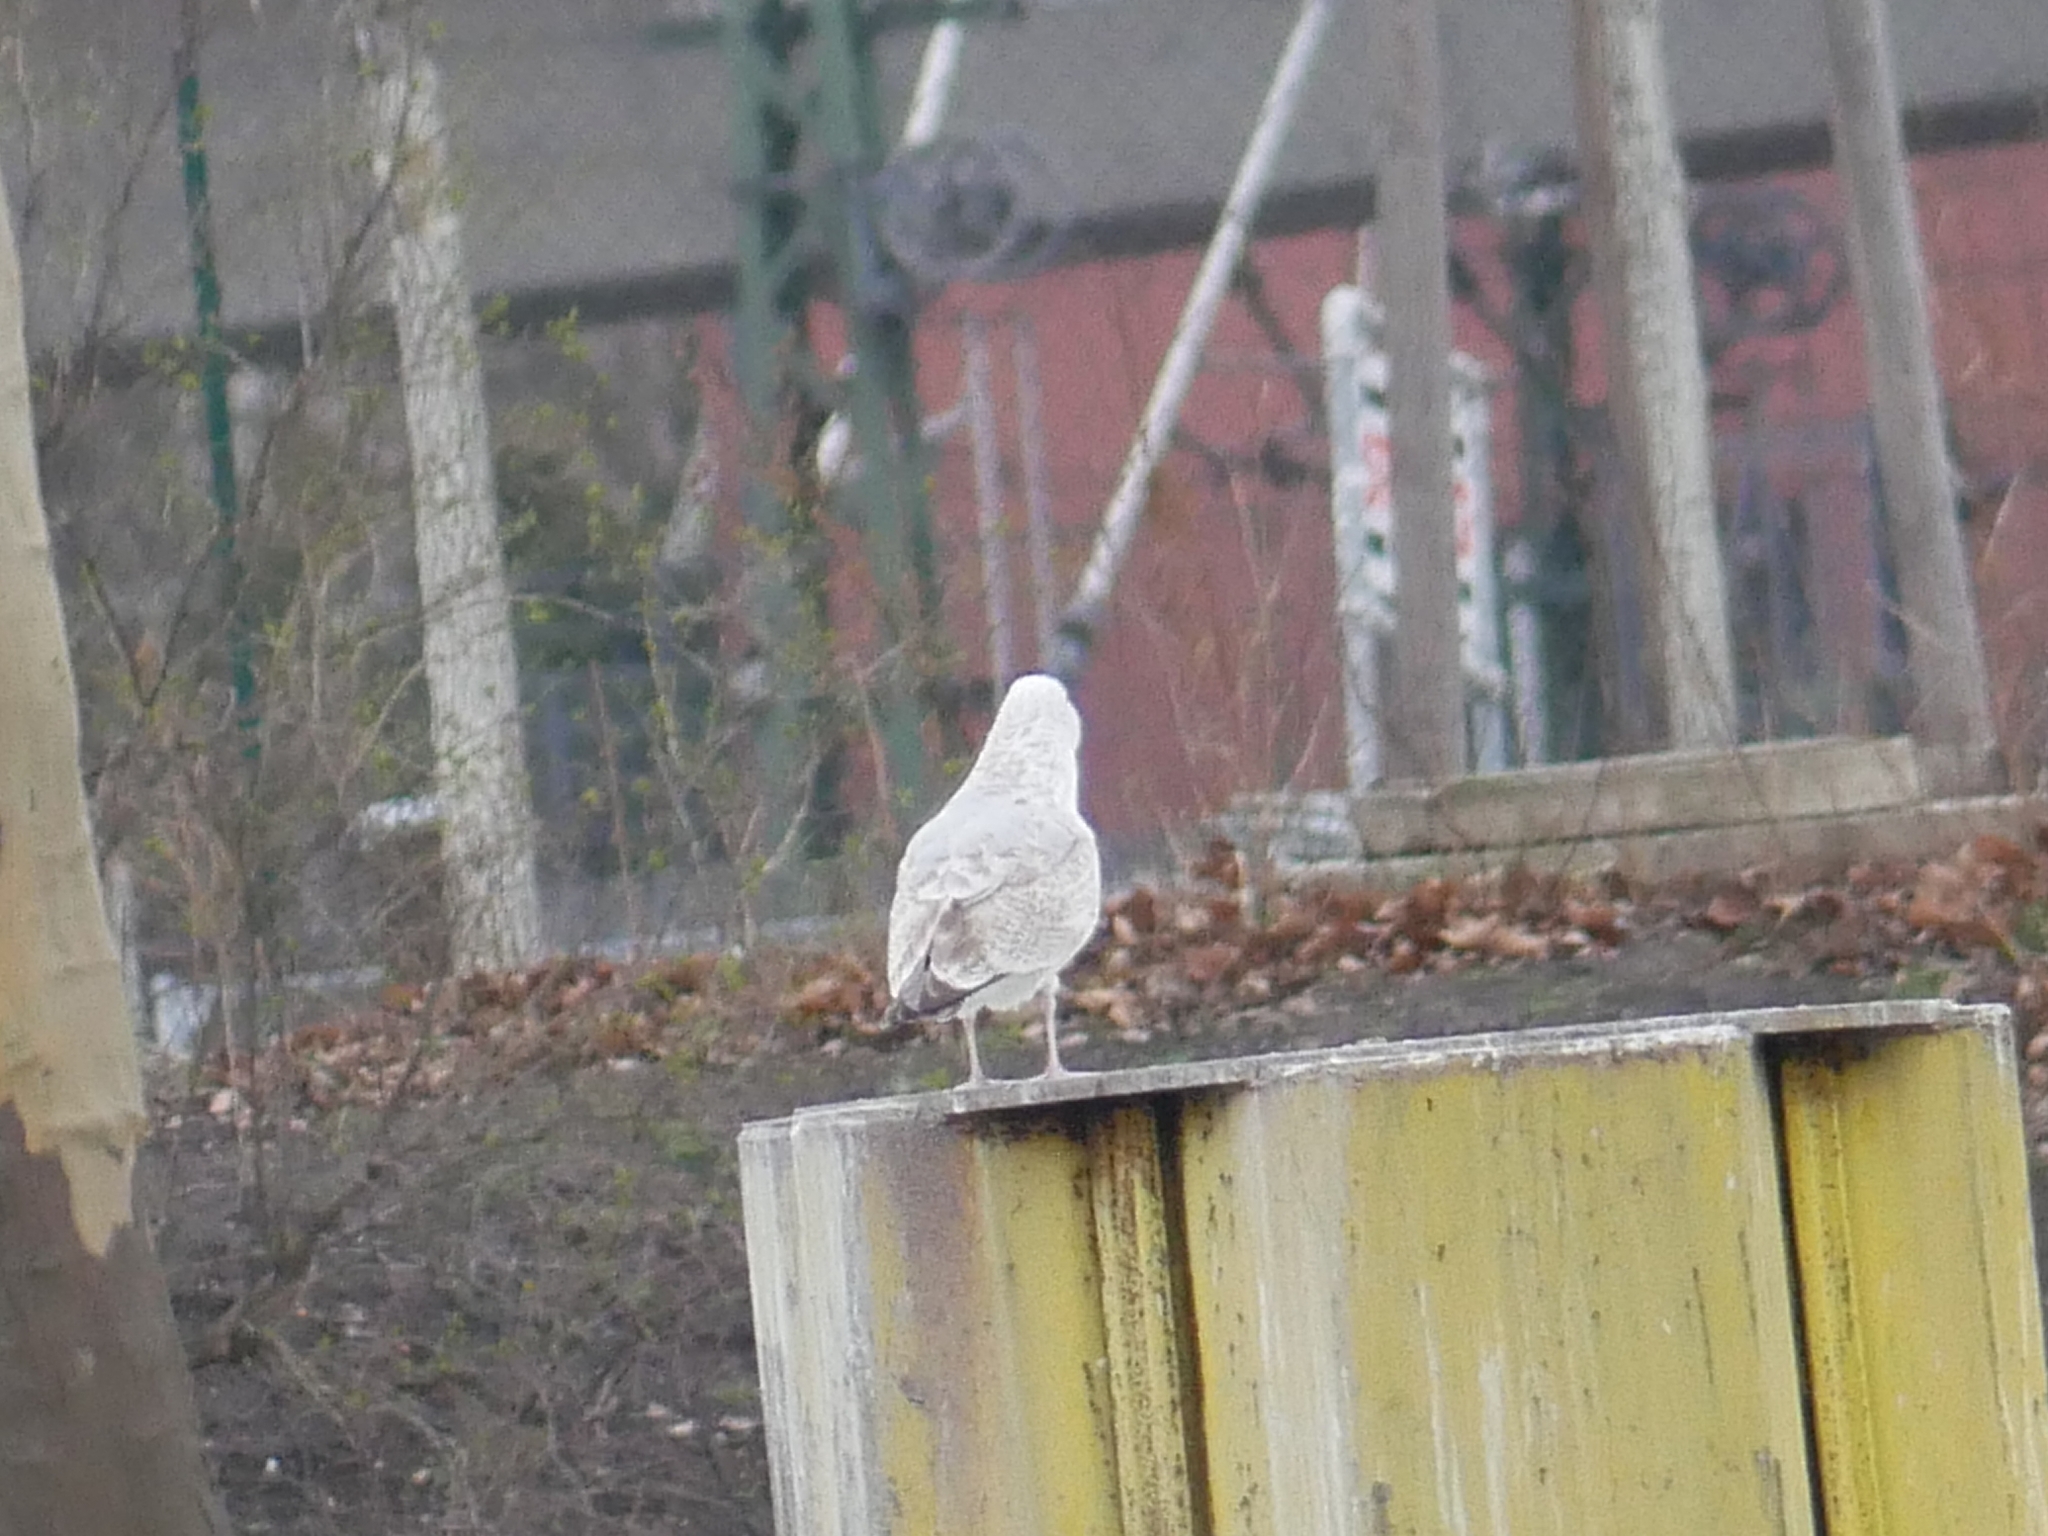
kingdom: Animalia
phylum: Chordata
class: Aves
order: Charadriiformes
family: Laridae
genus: Larus
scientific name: Larus argentatus
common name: Herring gull
